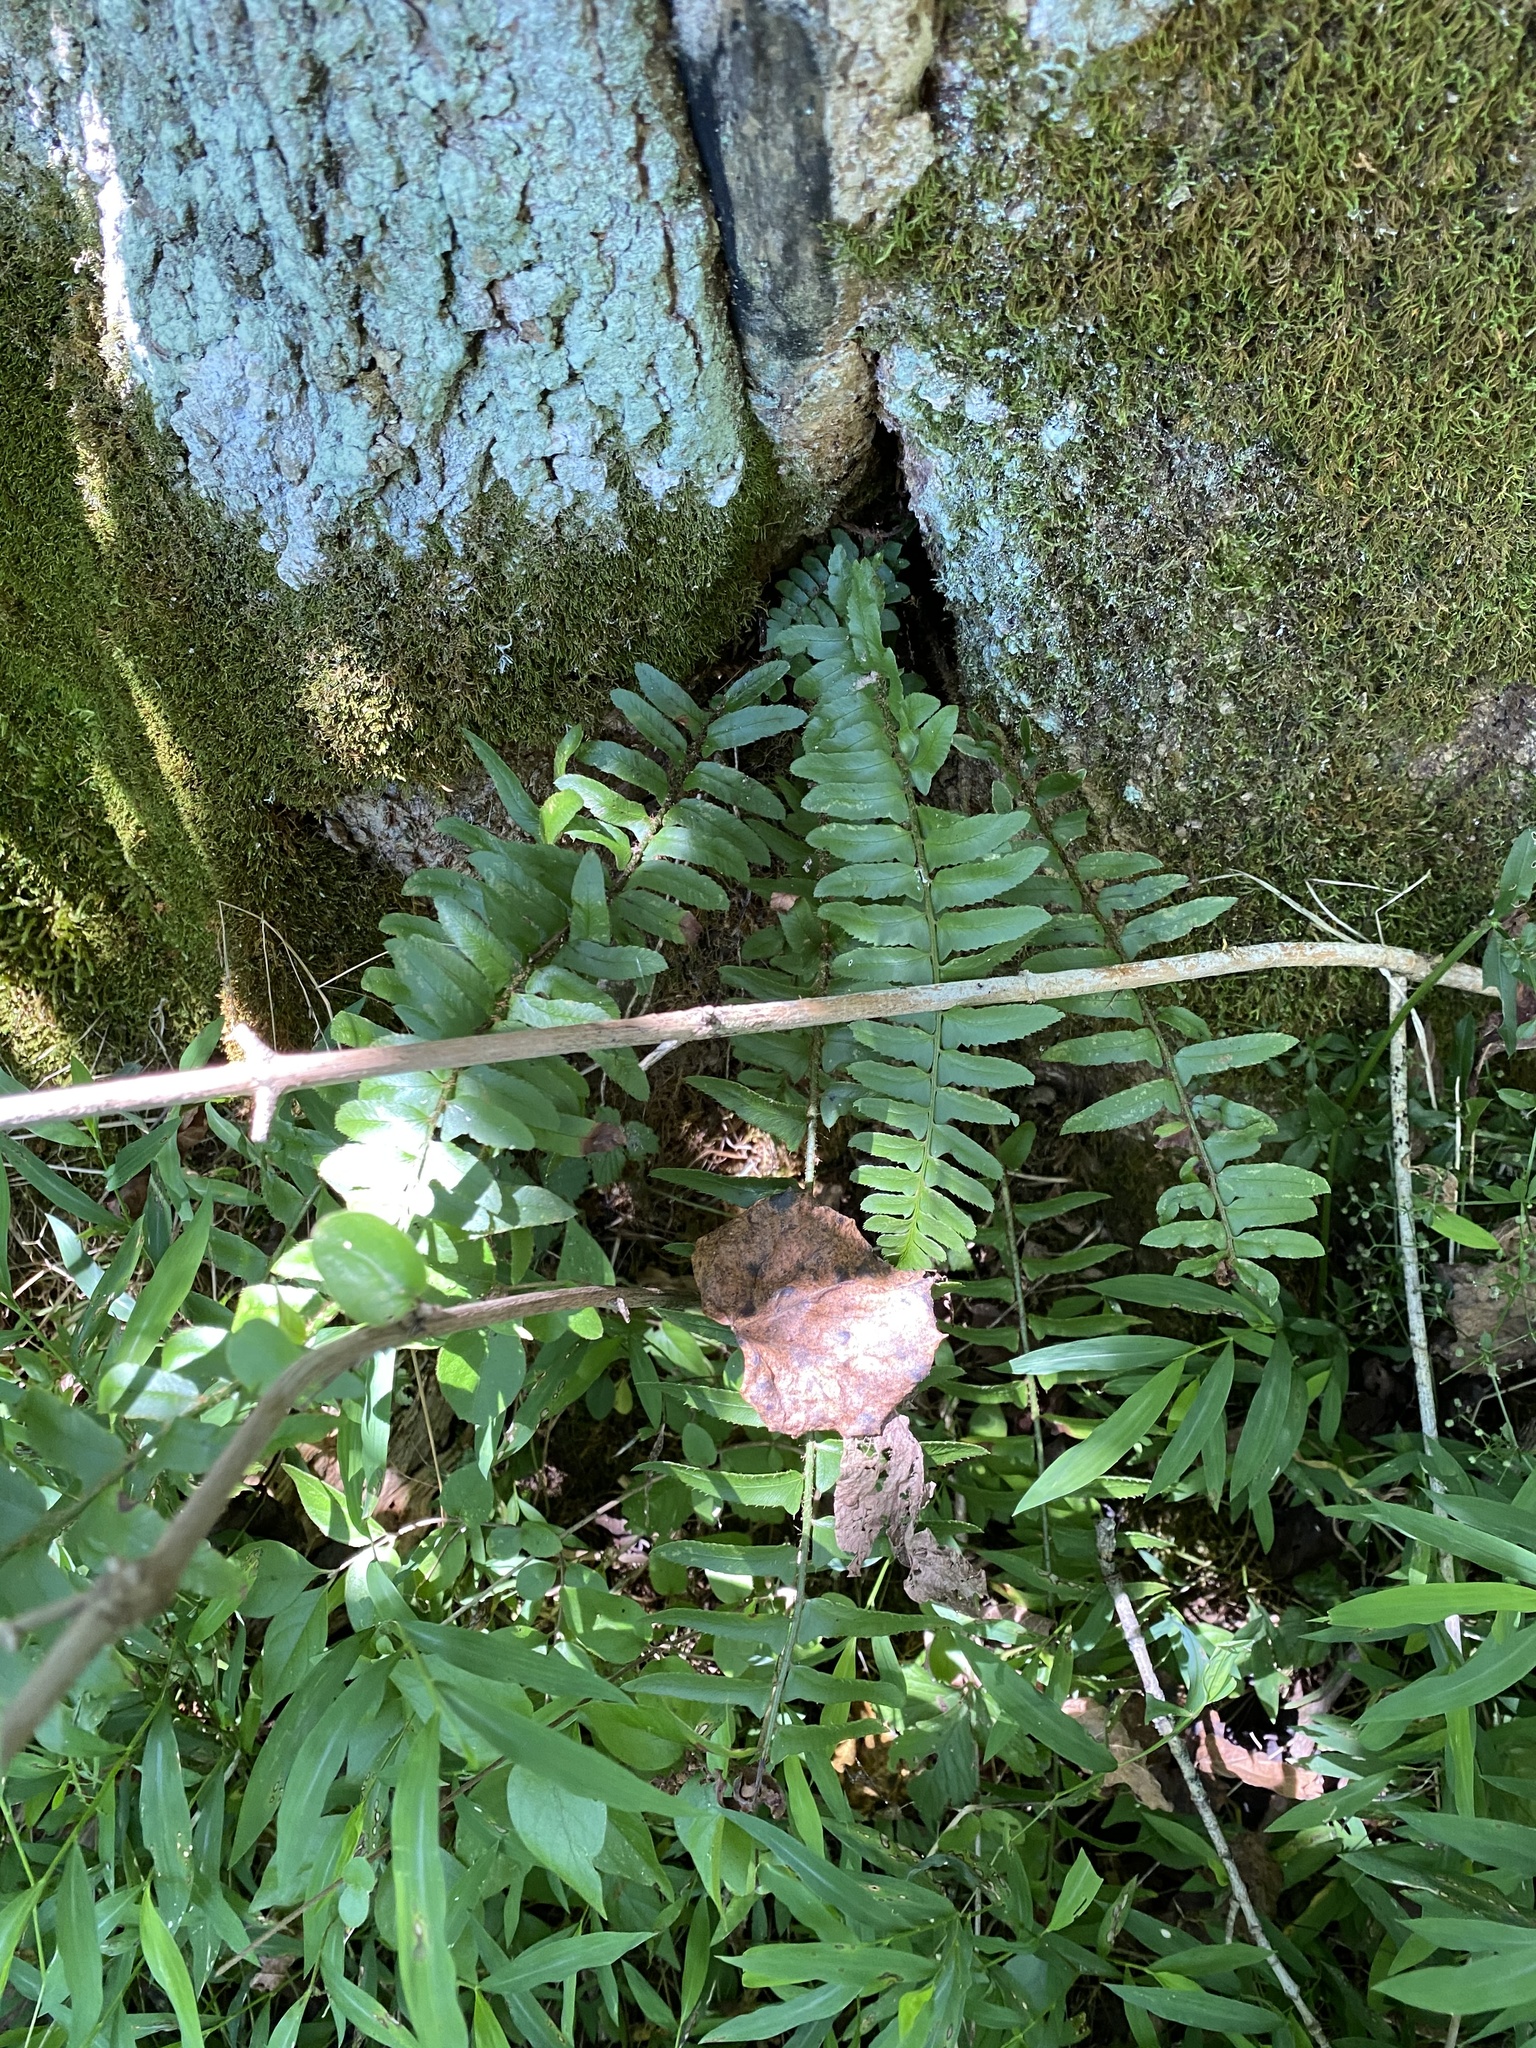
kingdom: Plantae
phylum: Tracheophyta
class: Polypodiopsida
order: Polypodiales
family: Dryopteridaceae
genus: Polystichum
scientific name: Polystichum acrostichoides
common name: Christmas fern
